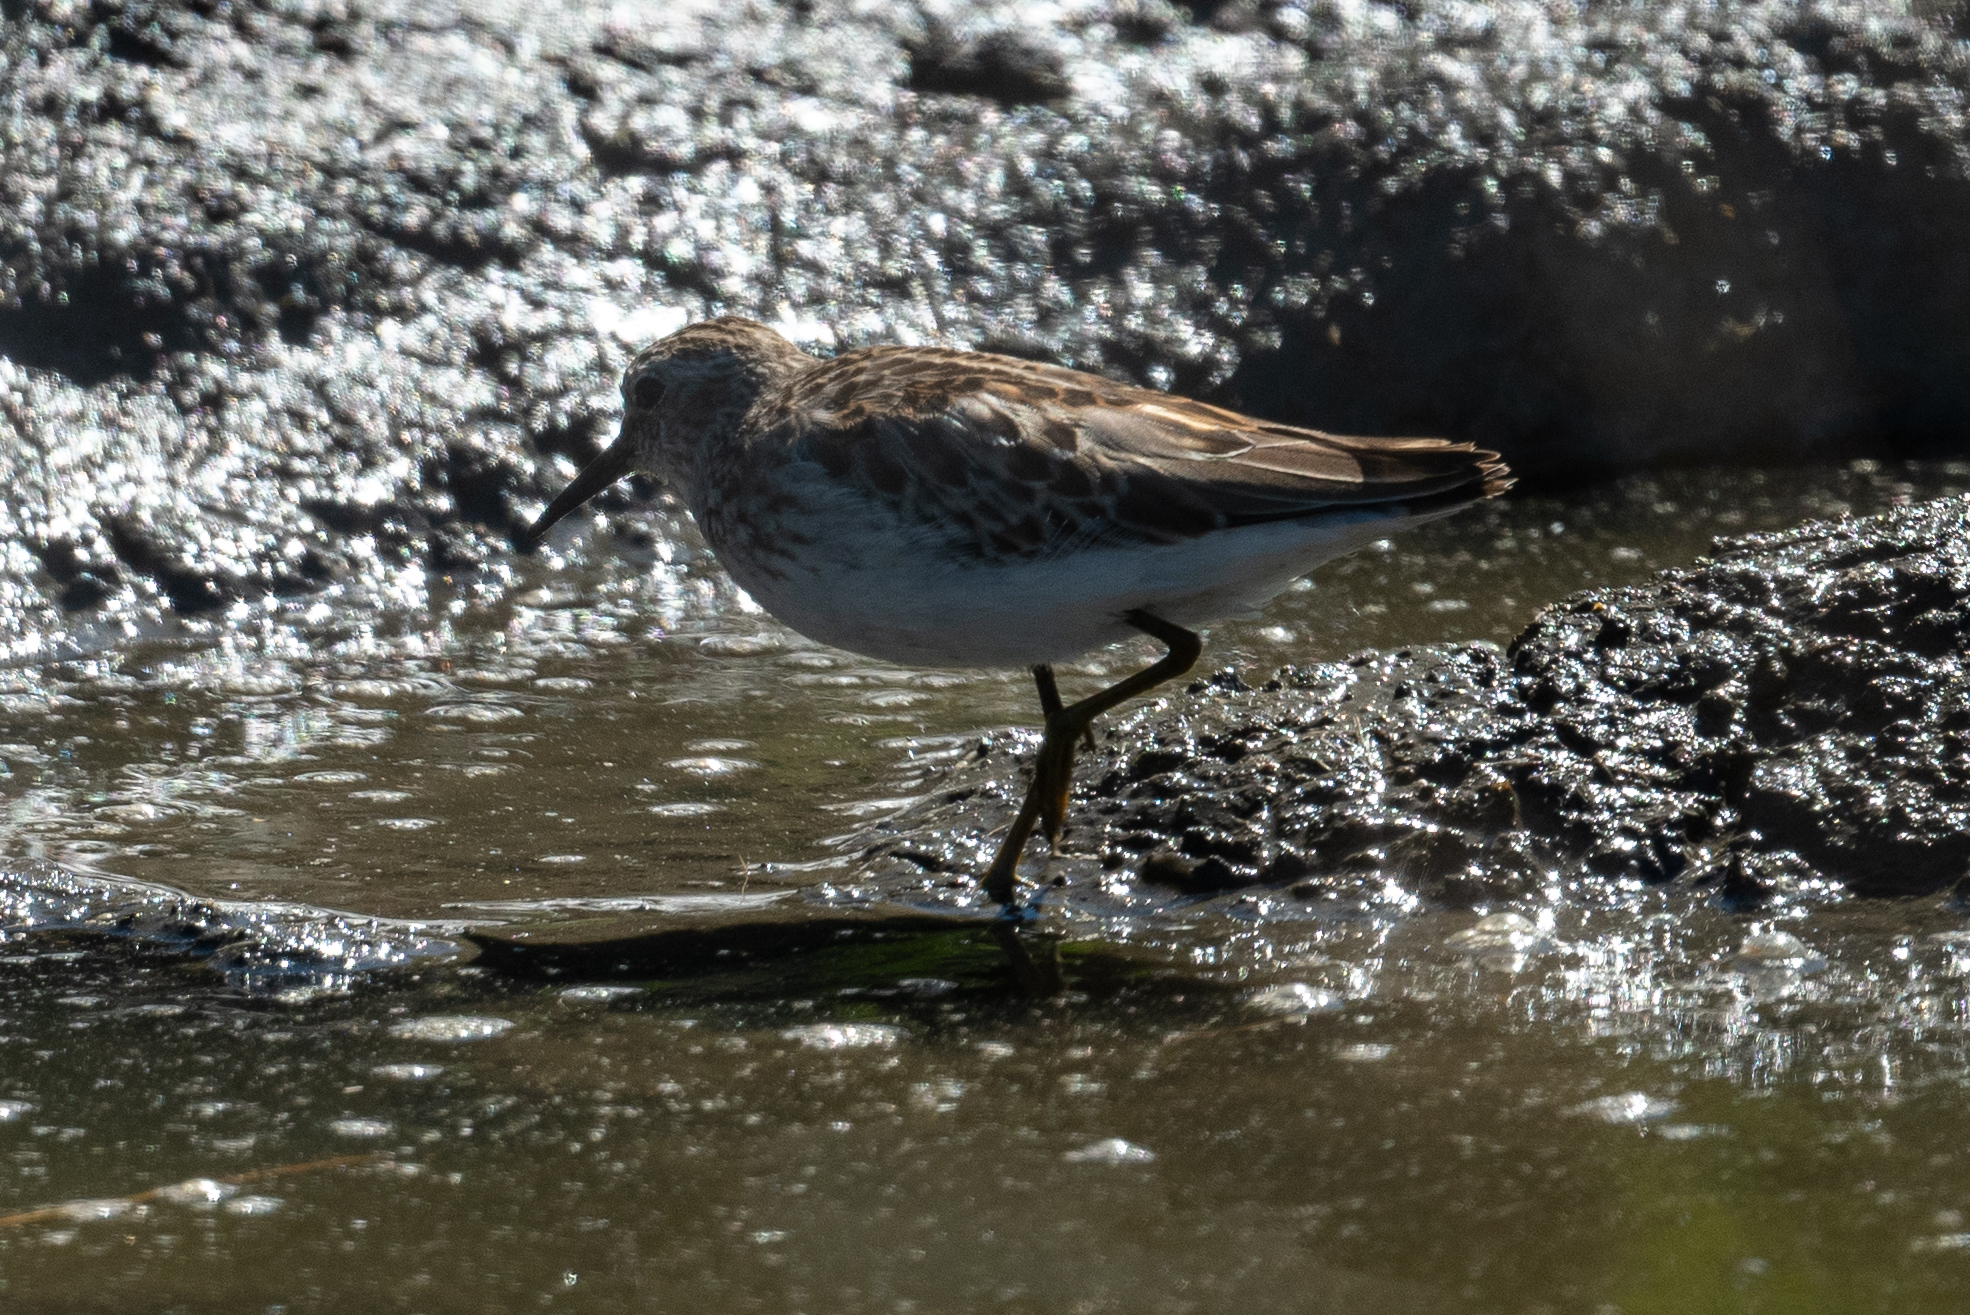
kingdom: Animalia
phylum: Chordata
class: Aves
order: Charadriiformes
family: Scolopacidae
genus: Calidris
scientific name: Calidris minutilla
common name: Least sandpiper
